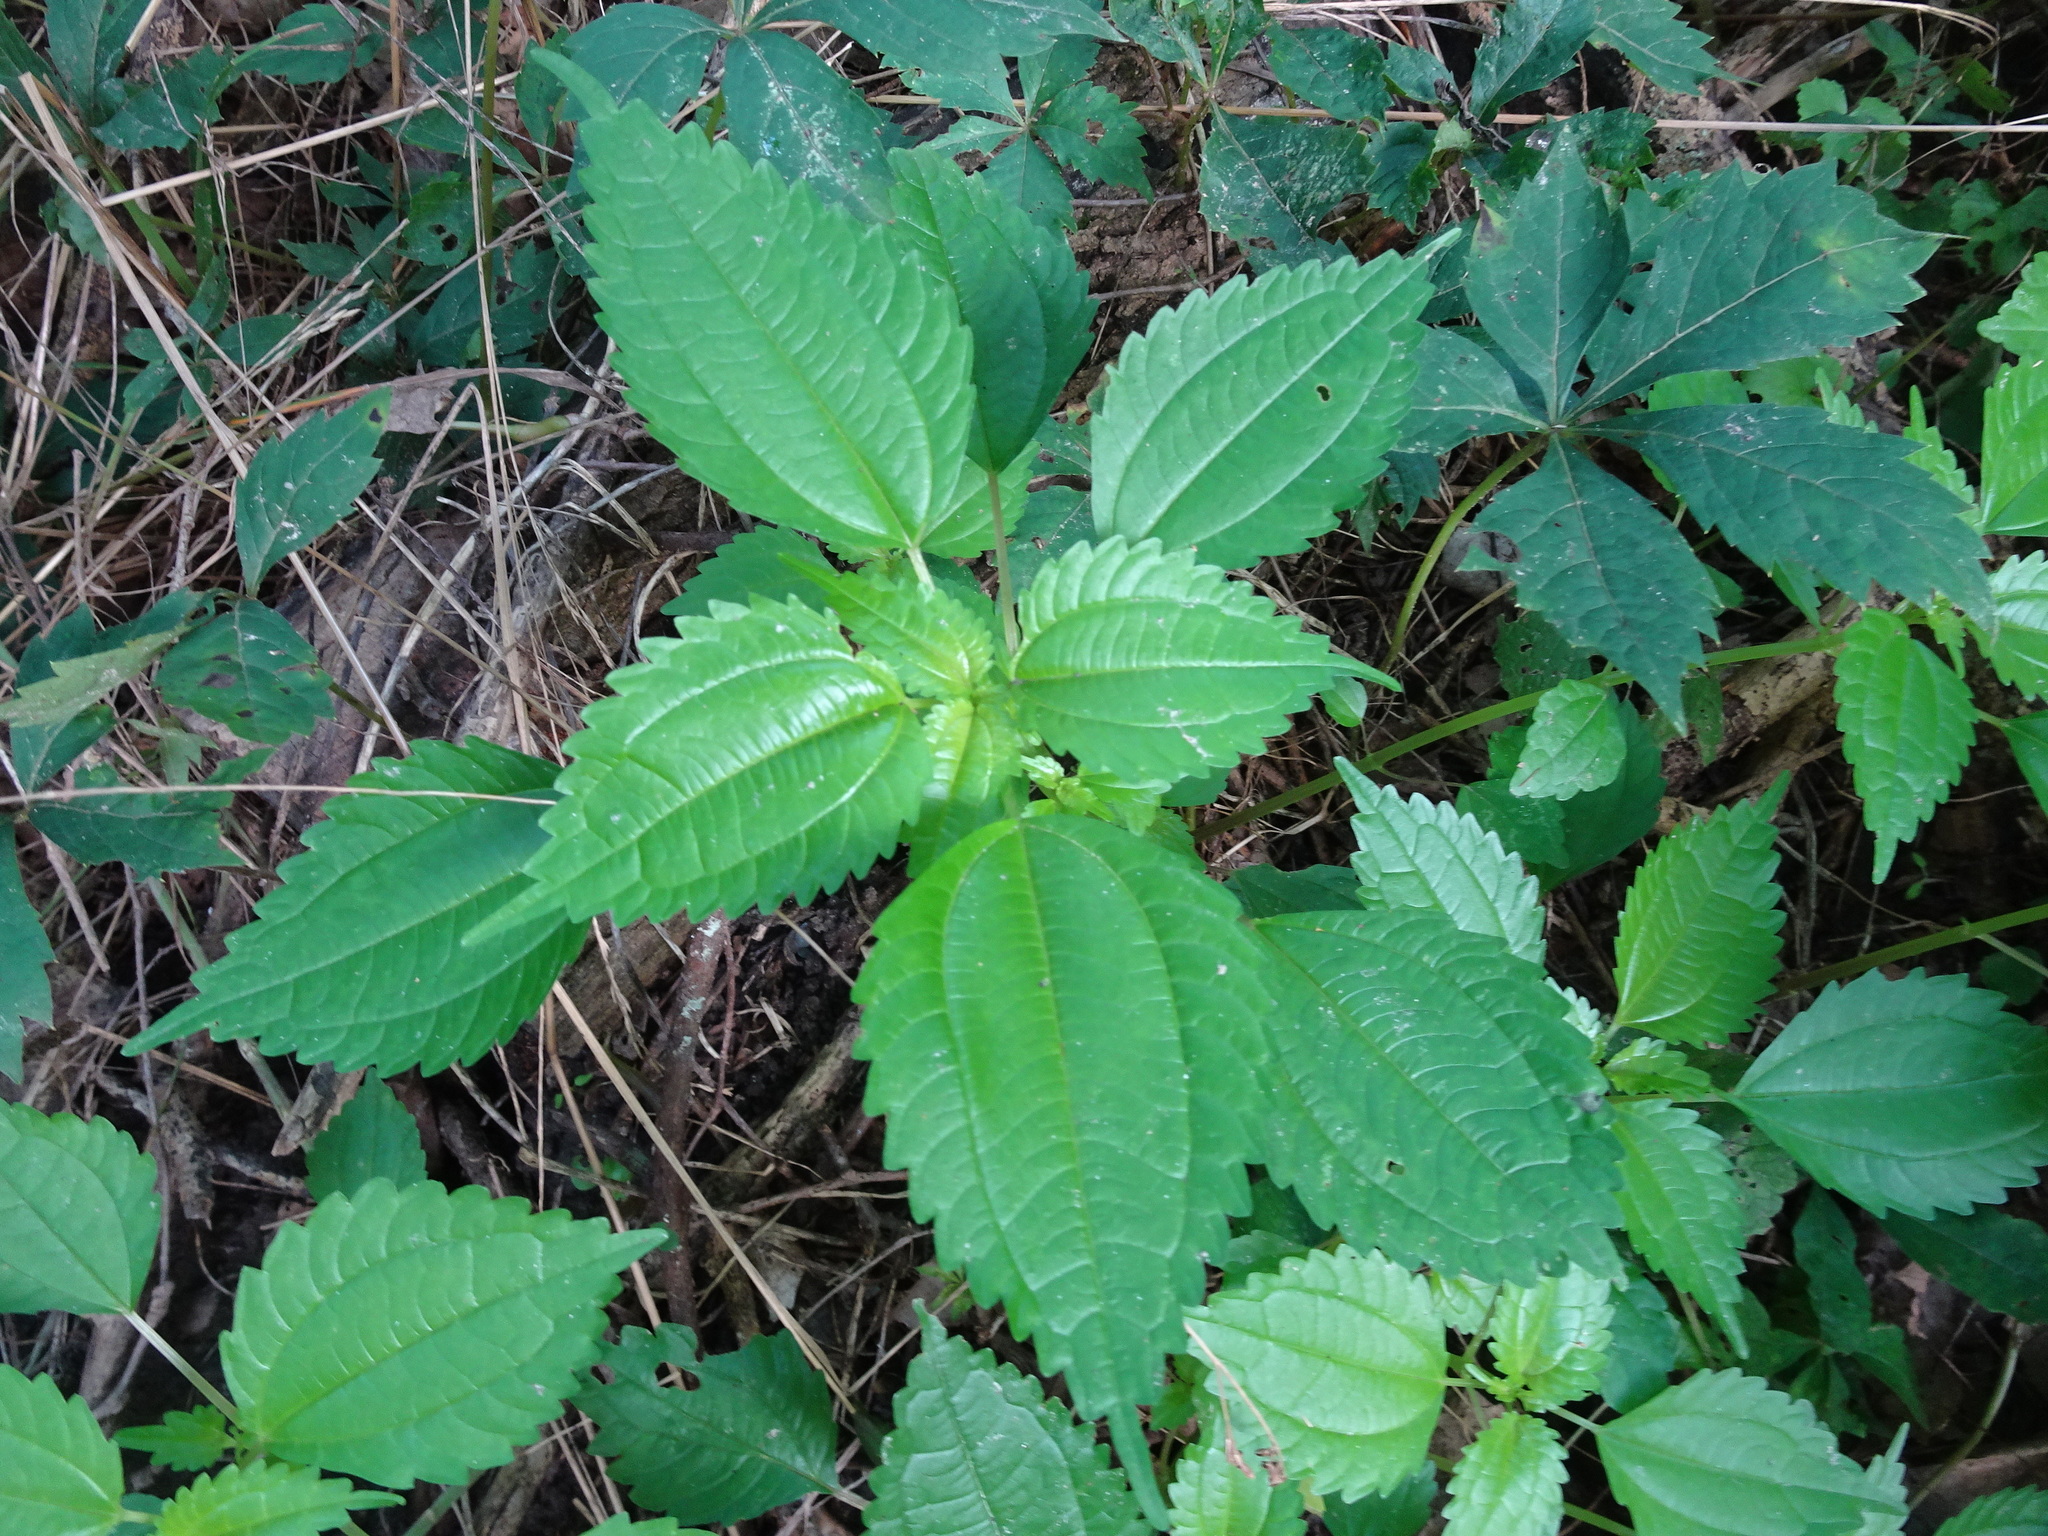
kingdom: Plantae
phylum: Tracheophyta
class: Magnoliopsida
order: Rosales
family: Urticaceae
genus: Pilea
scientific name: Pilea pumila
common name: Clearweed
